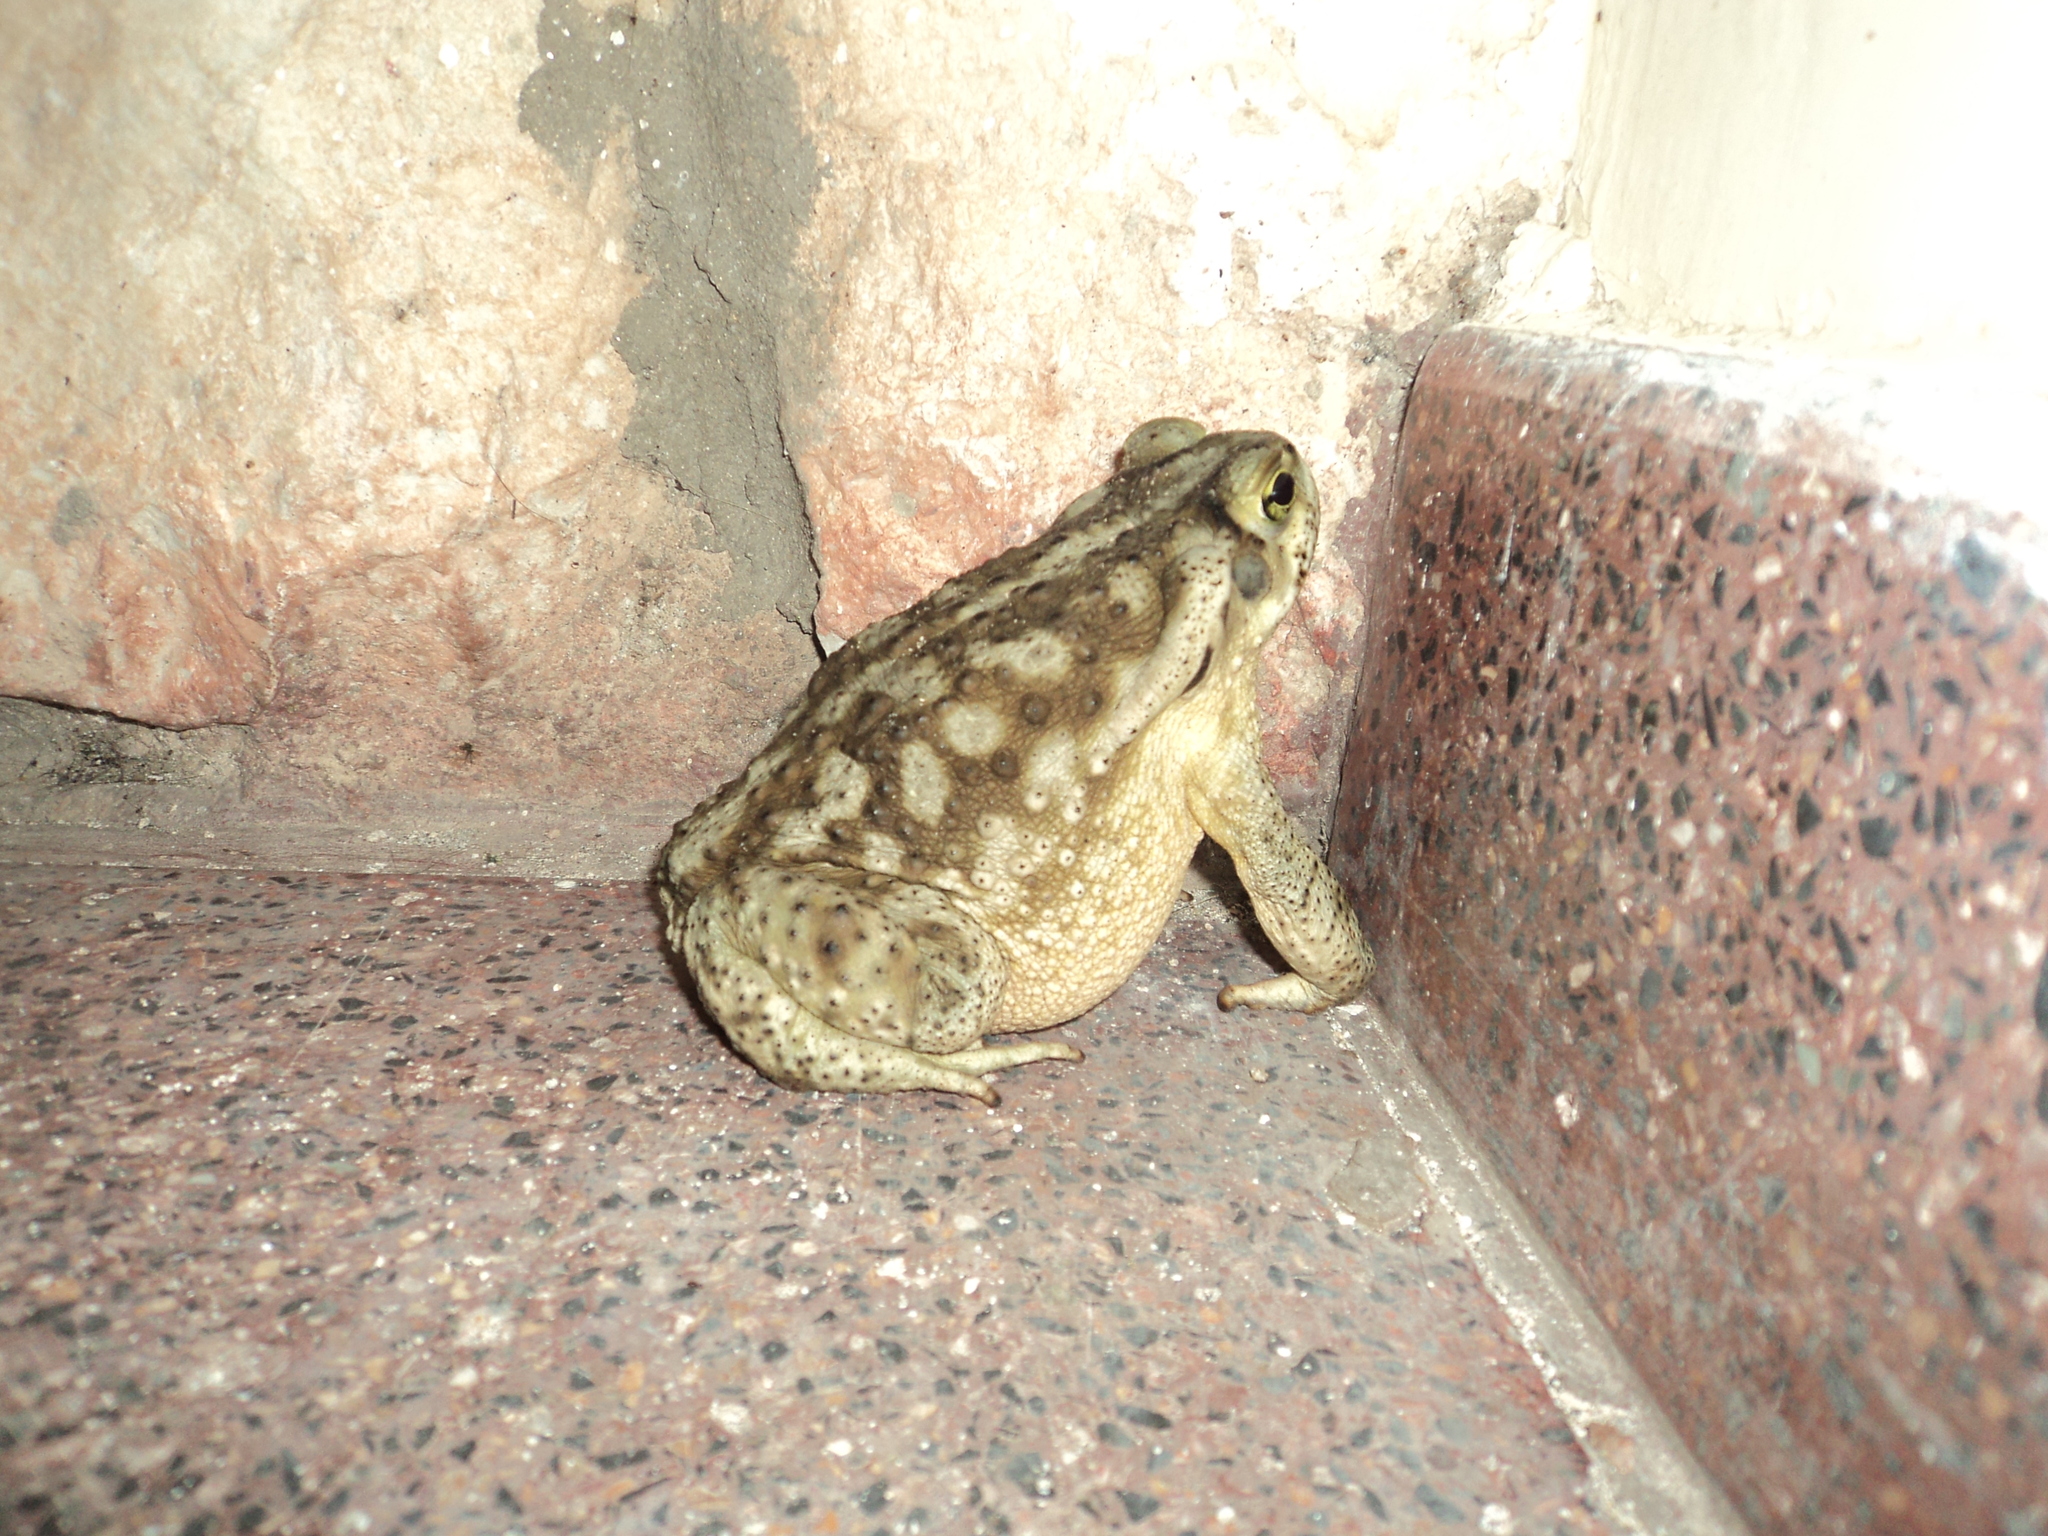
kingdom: Animalia
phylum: Chordata
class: Amphibia
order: Anura
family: Bufonidae
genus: Rhinella
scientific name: Rhinella arenarum
